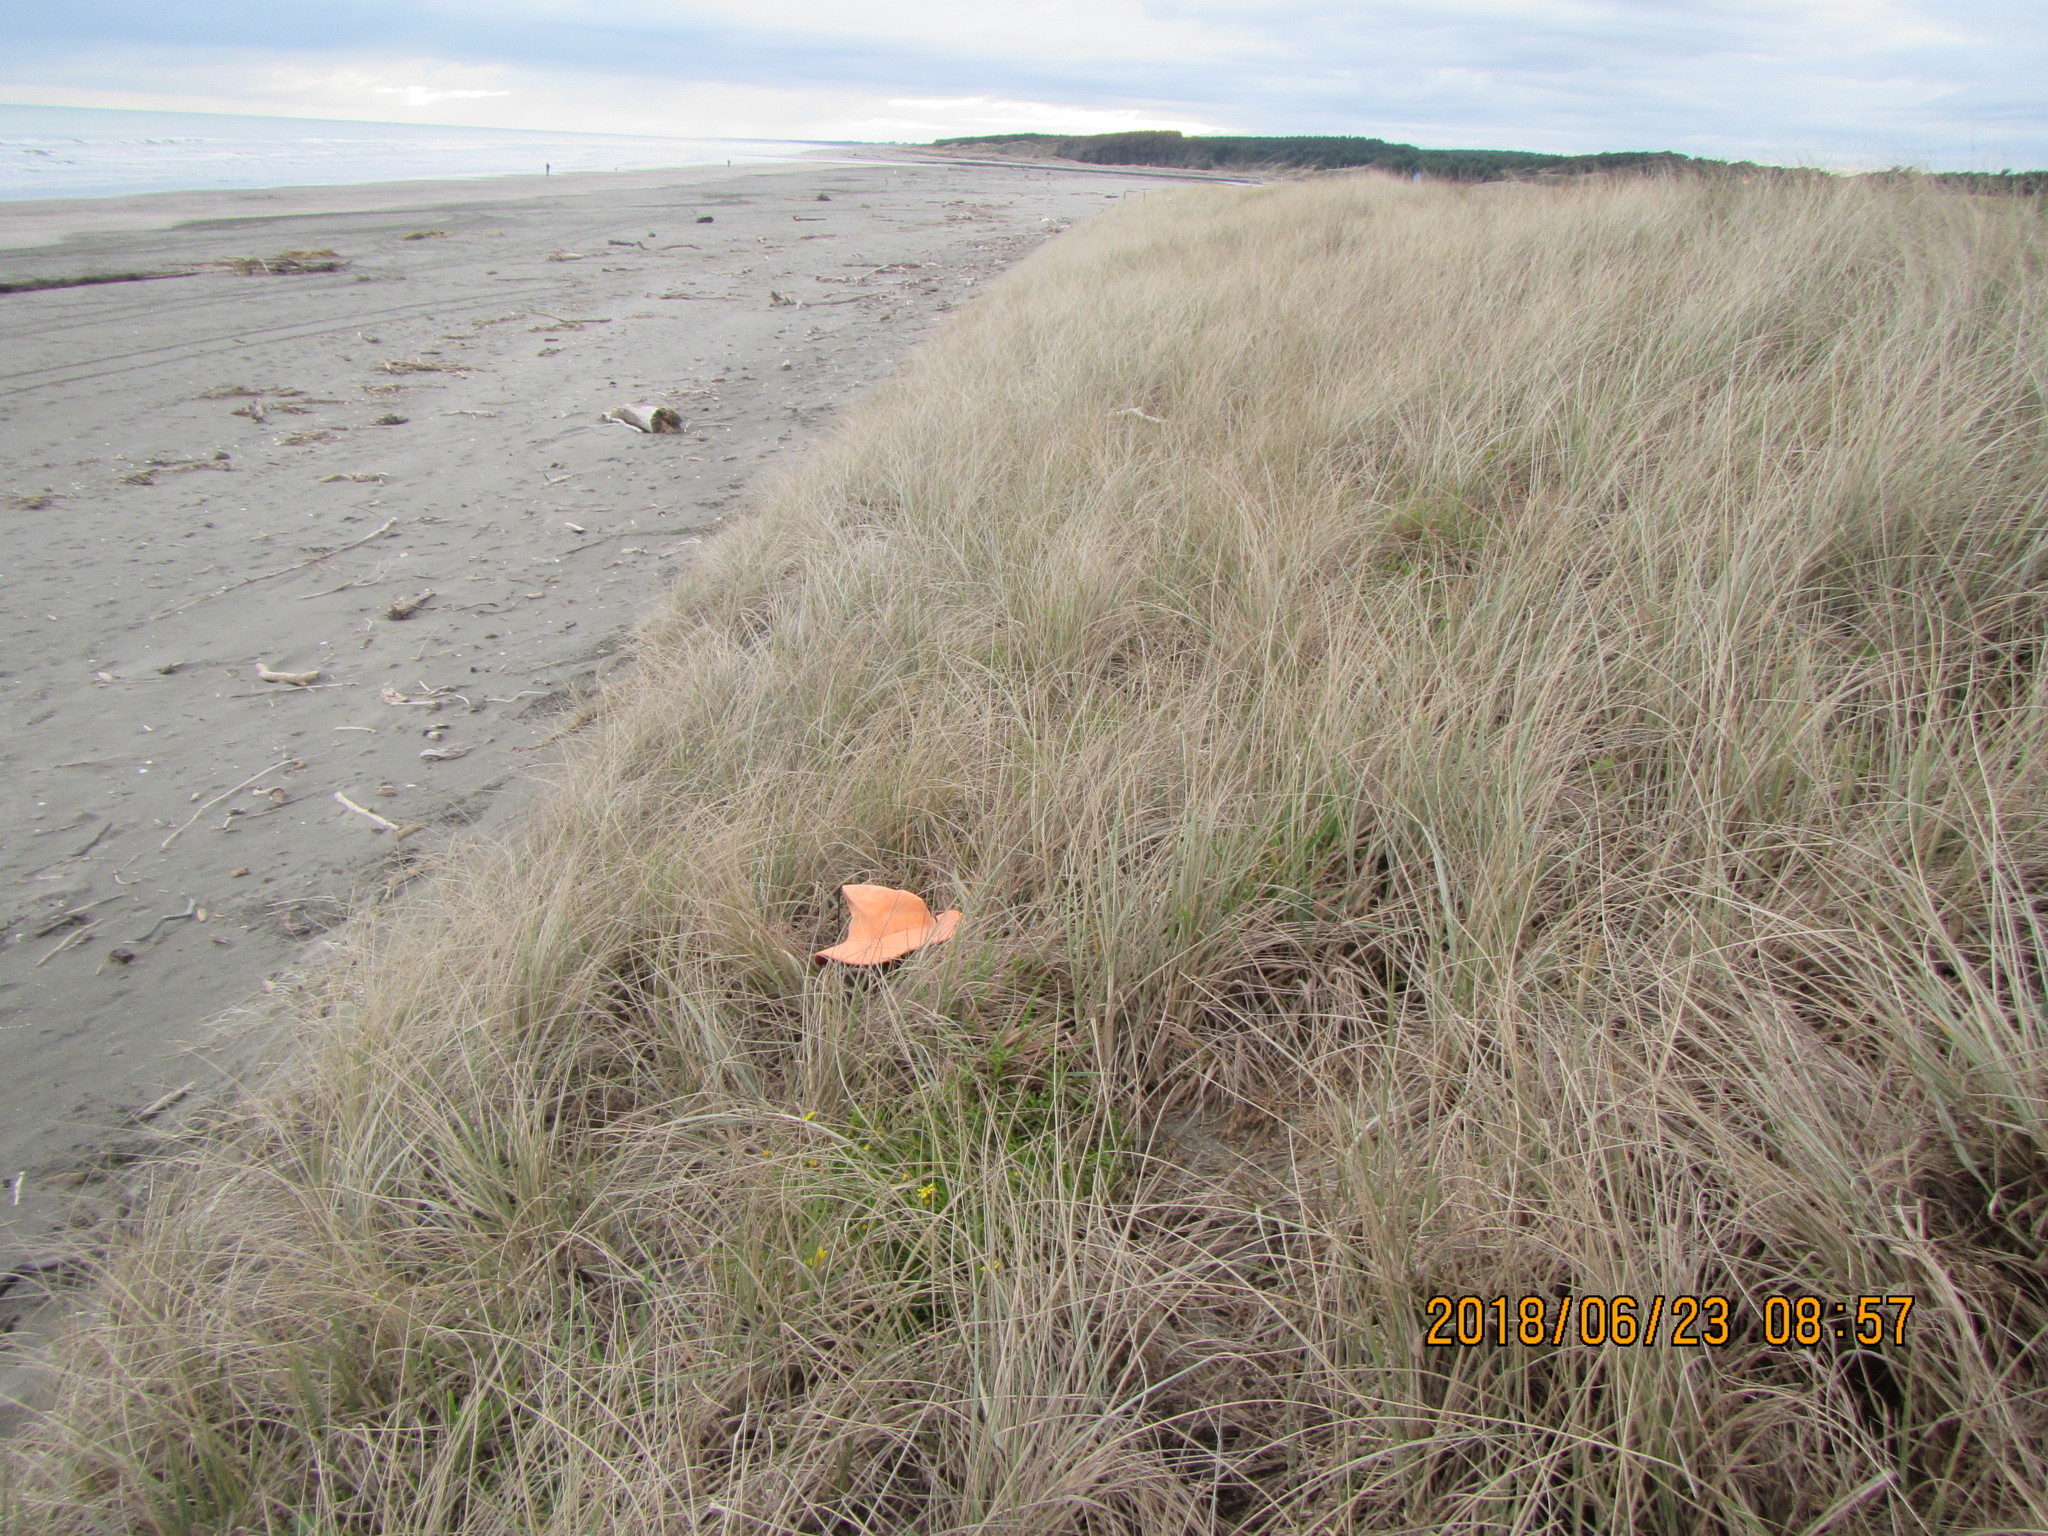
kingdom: Animalia
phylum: Mollusca
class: Gastropoda
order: Stylommatophora
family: Helicidae
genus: Cornu
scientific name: Cornu aspersum
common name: Brown garden snail
